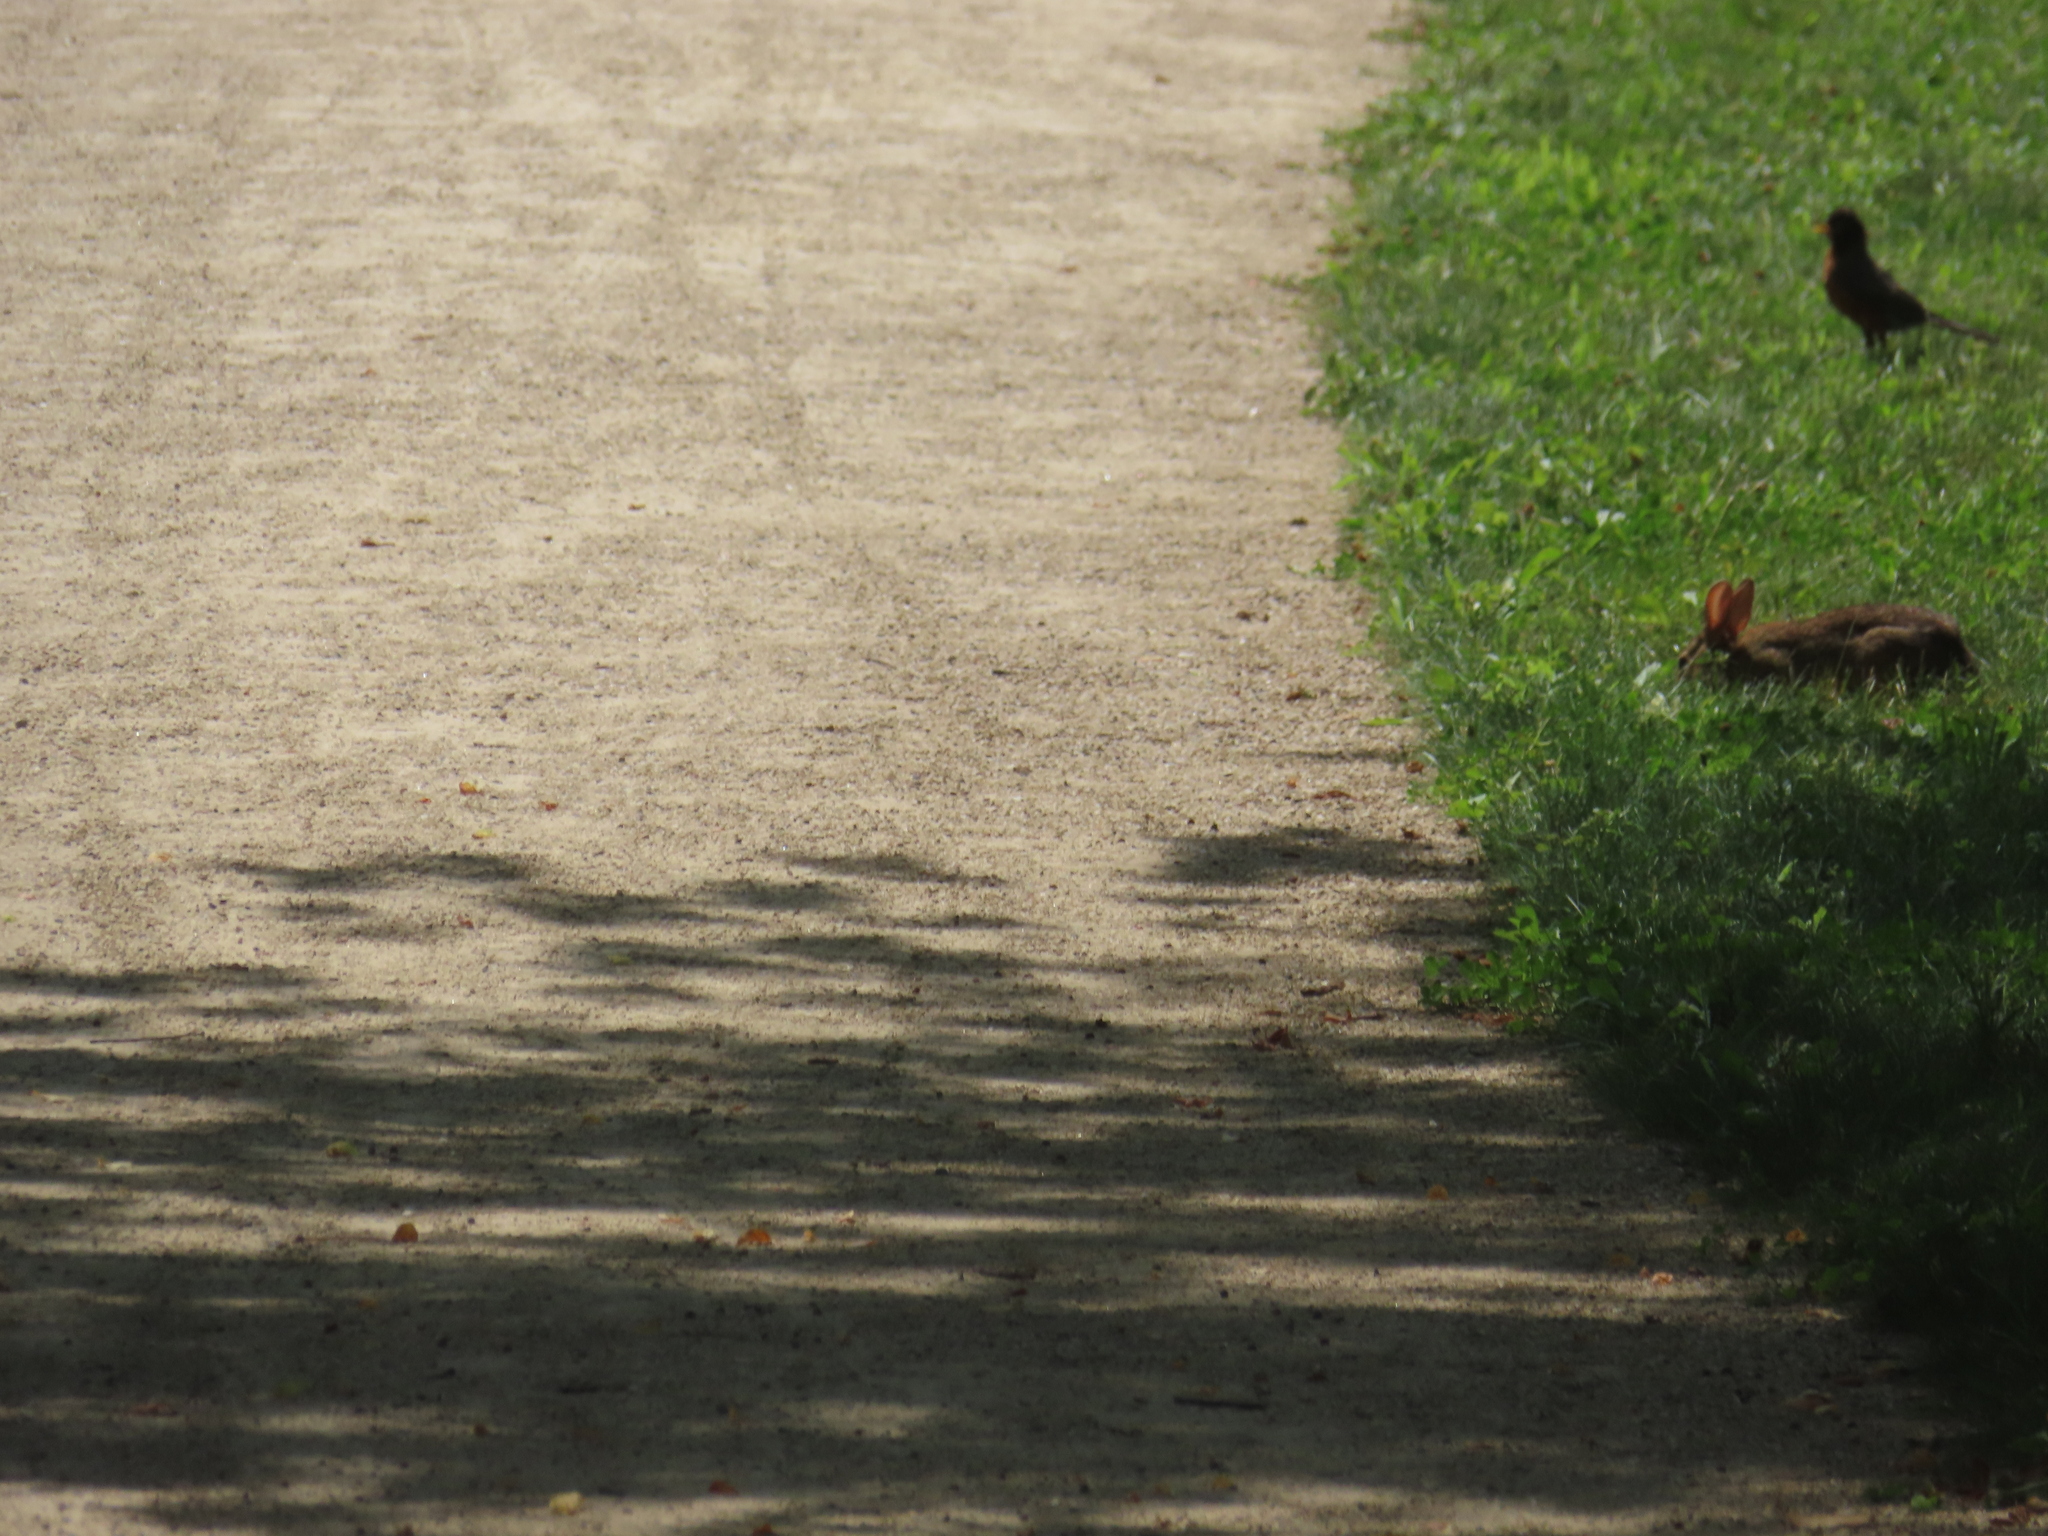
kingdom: Animalia
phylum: Chordata
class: Mammalia
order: Lagomorpha
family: Leporidae
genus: Sylvilagus
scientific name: Sylvilagus floridanus
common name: Eastern cottontail
